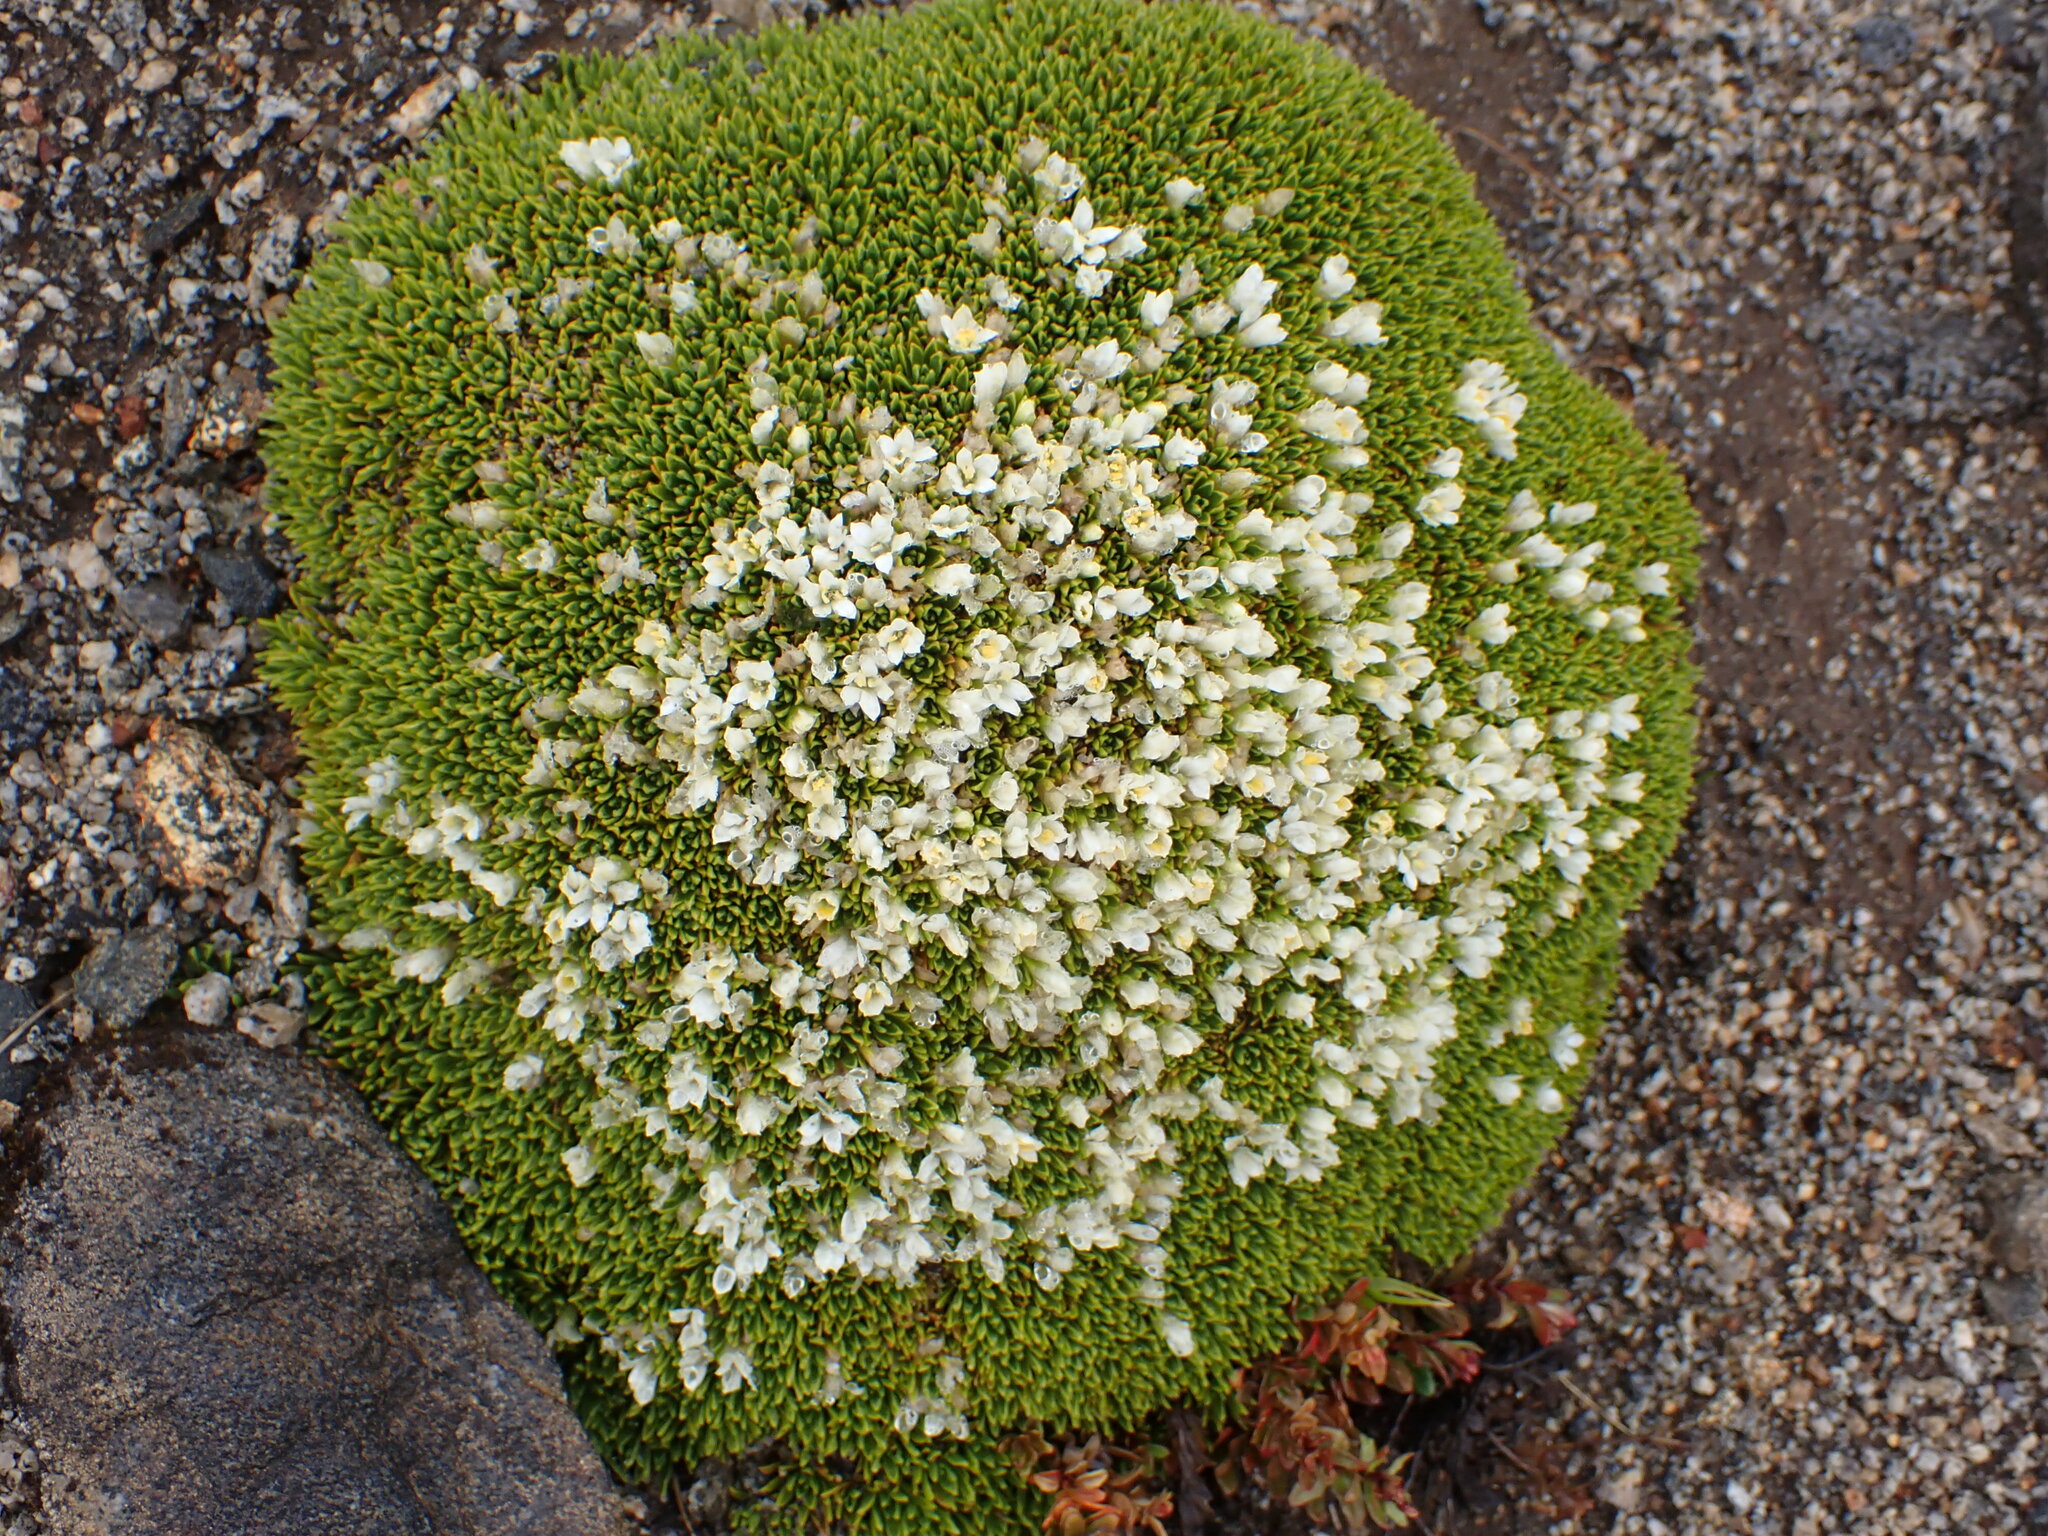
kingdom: Plantae
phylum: Tracheophyta
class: Magnoliopsida
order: Caryophyllales
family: Montiaceae
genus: Hectorella
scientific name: Hectorella caespitosa
